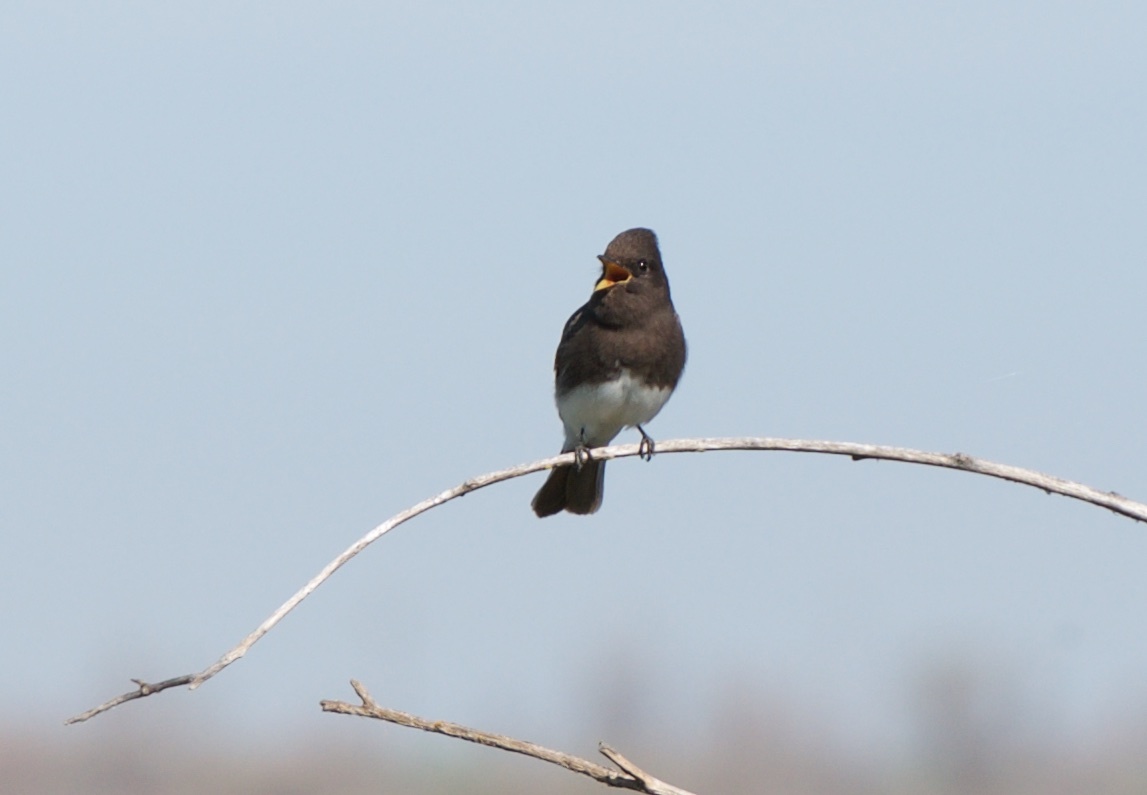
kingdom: Animalia
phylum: Chordata
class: Aves
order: Passeriformes
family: Tyrannidae
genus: Sayornis
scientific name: Sayornis nigricans
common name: Black phoebe
